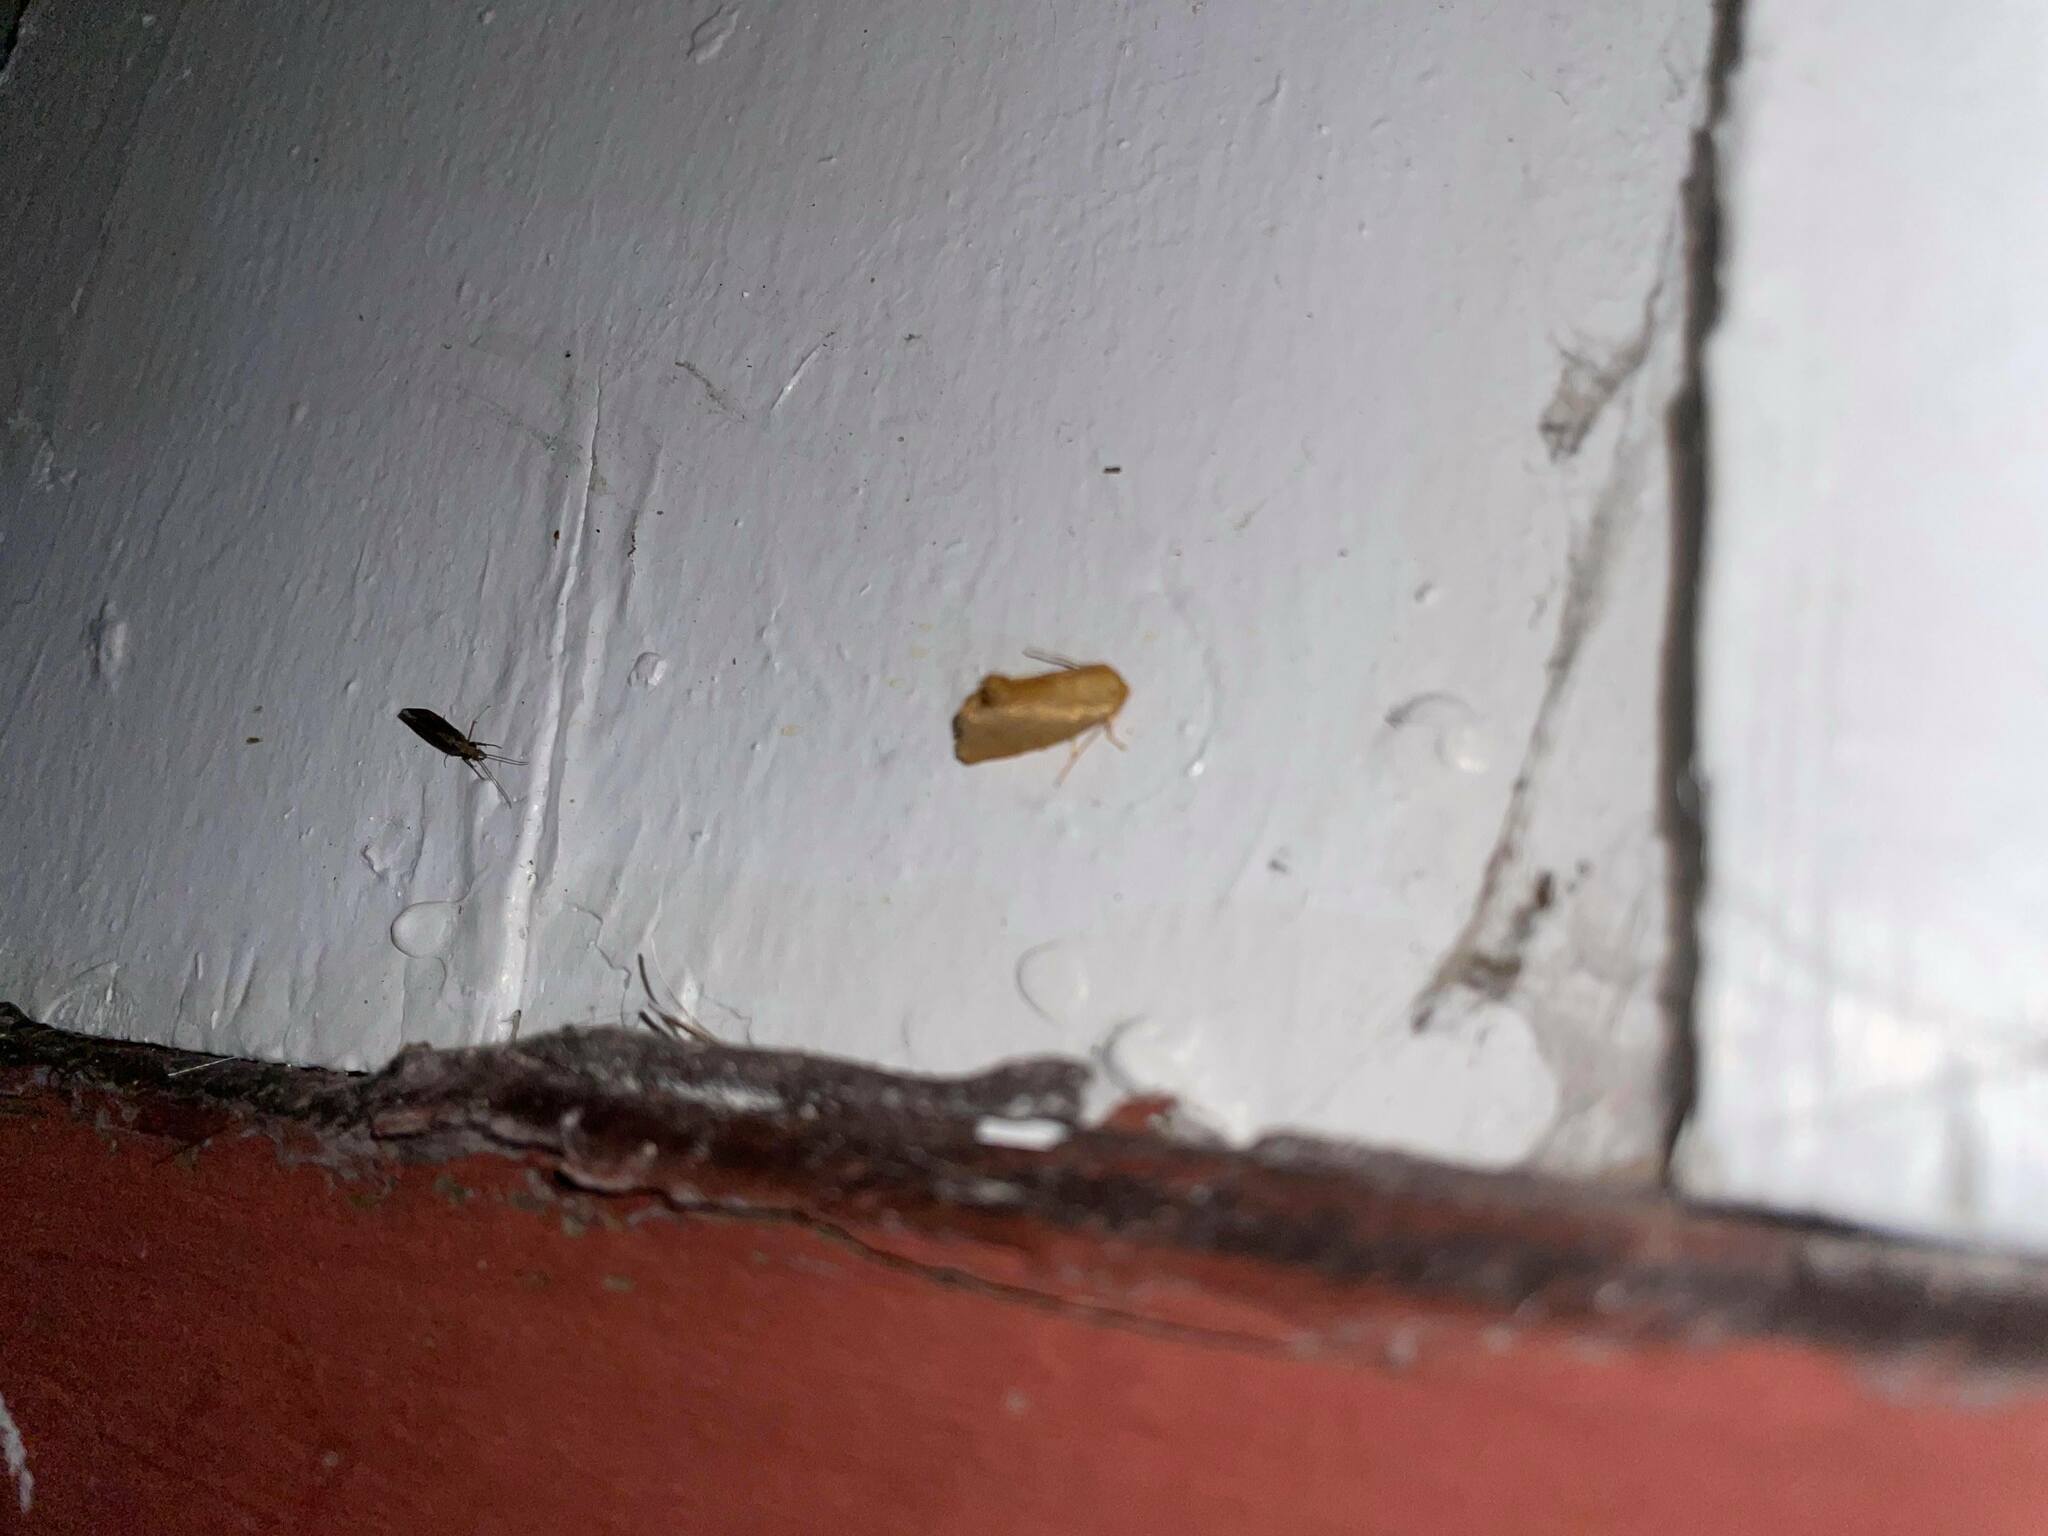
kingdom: Animalia
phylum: Arthropoda
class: Insecta
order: Lepidoptera
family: Limacodidae
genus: Tortricidia
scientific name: Tortricidia pallida
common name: Red-crossed button slug moth
